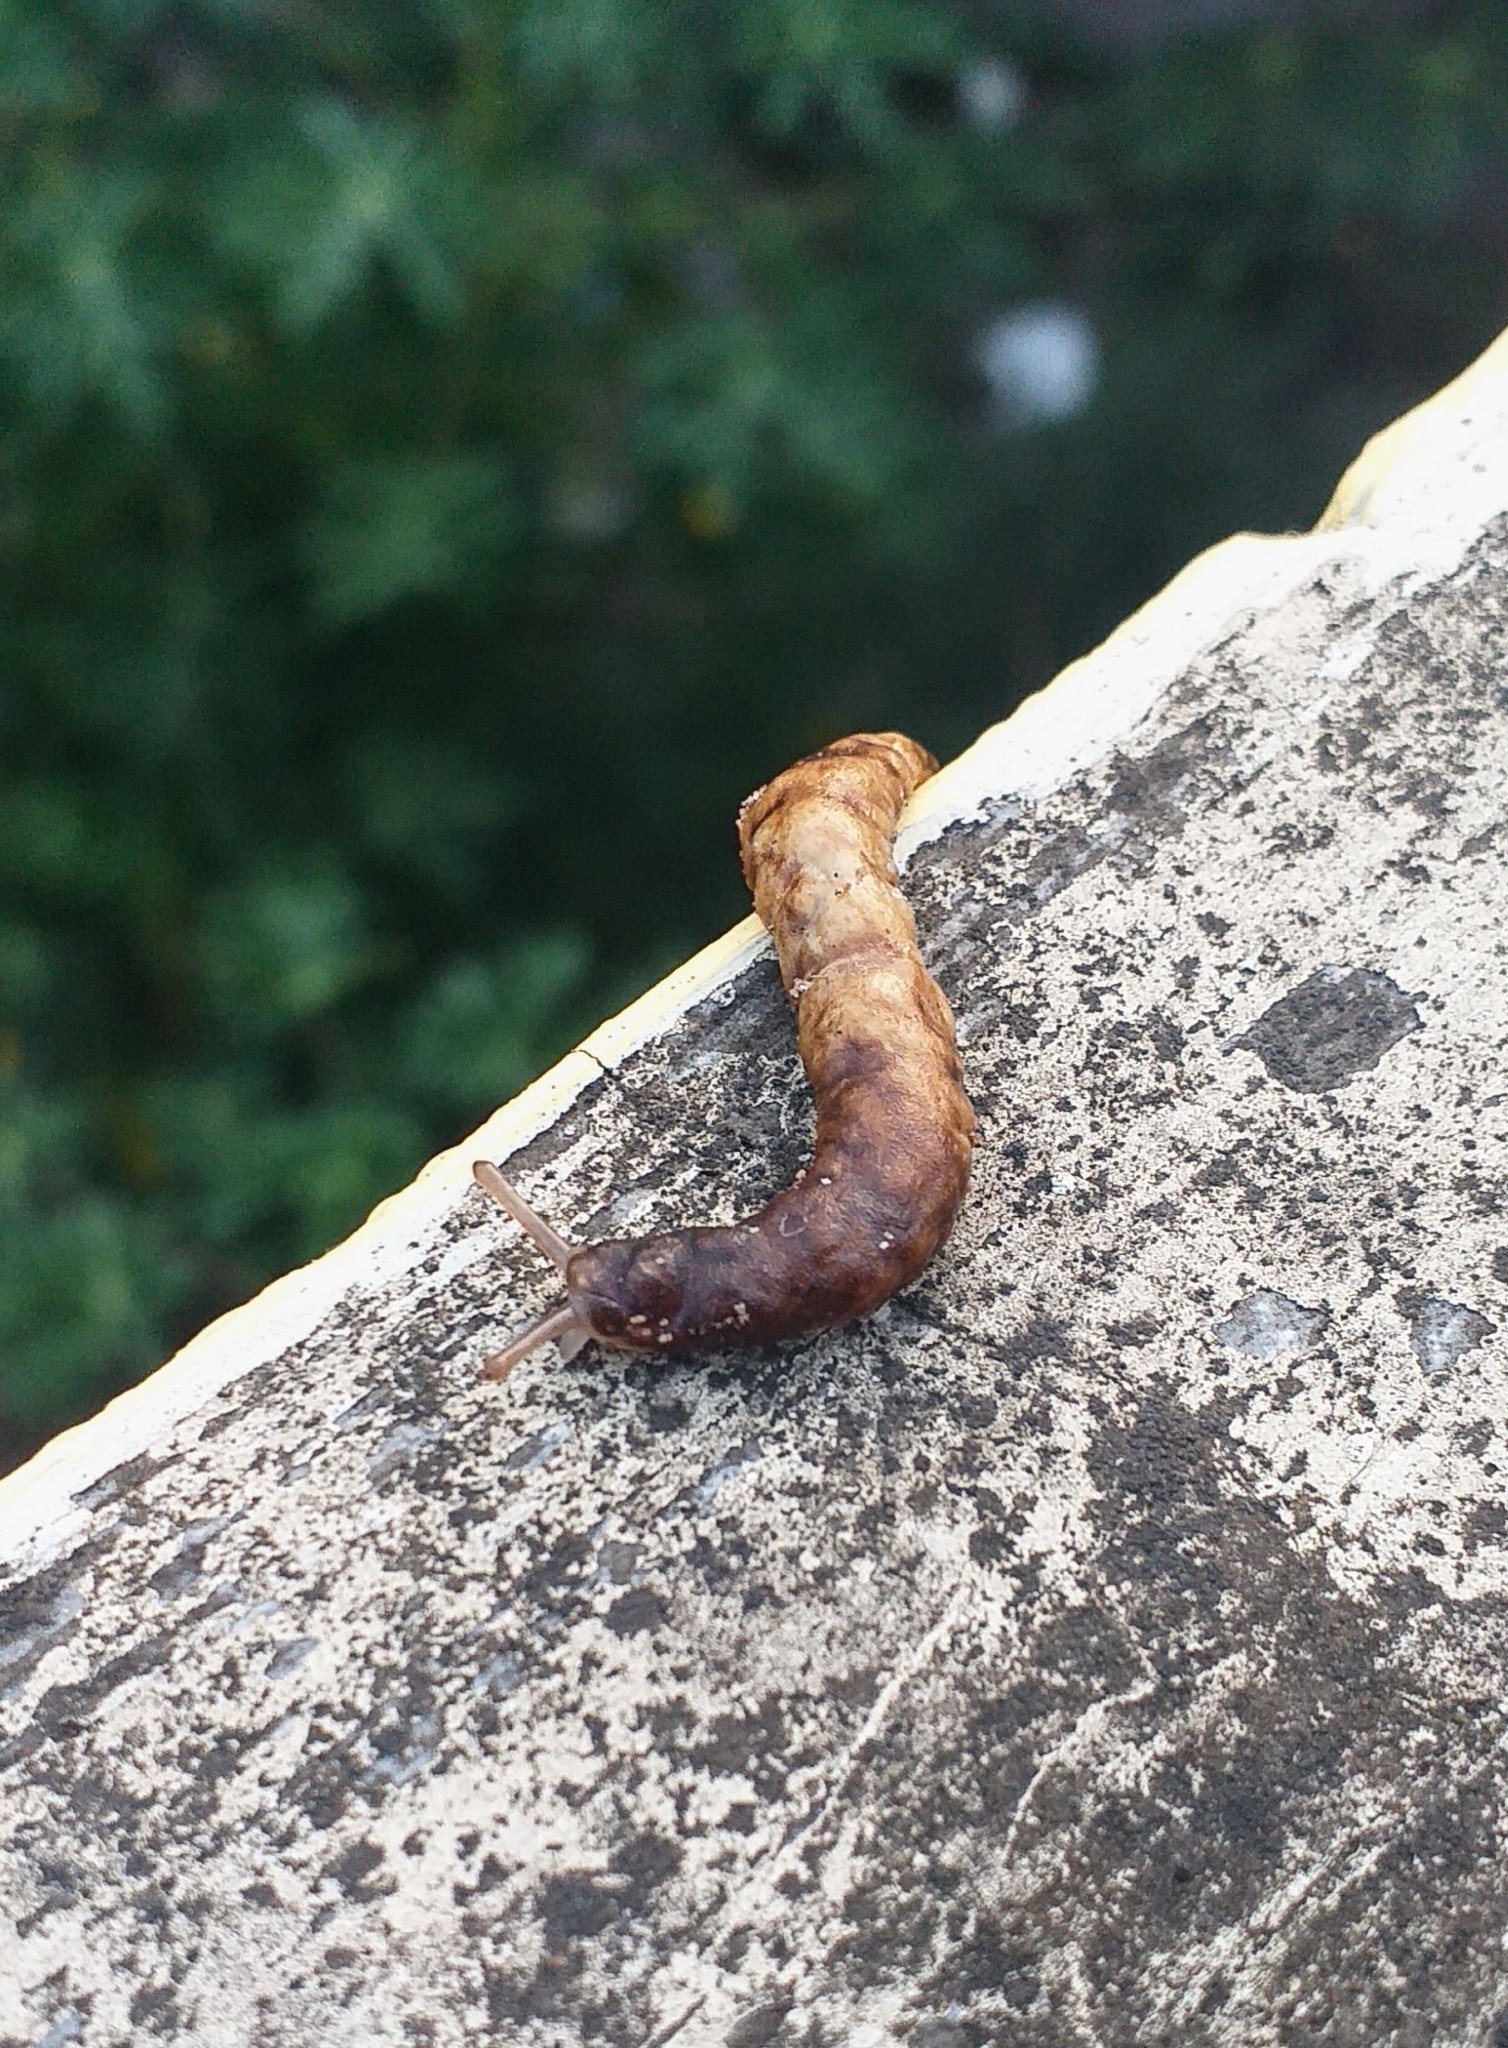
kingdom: Animalia
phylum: Mollusca
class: Gastropoda
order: Systellommatophora
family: Veronicellidae
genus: Laevicaulis
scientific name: Laevicaulis haroldi
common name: Caterpillar slug
